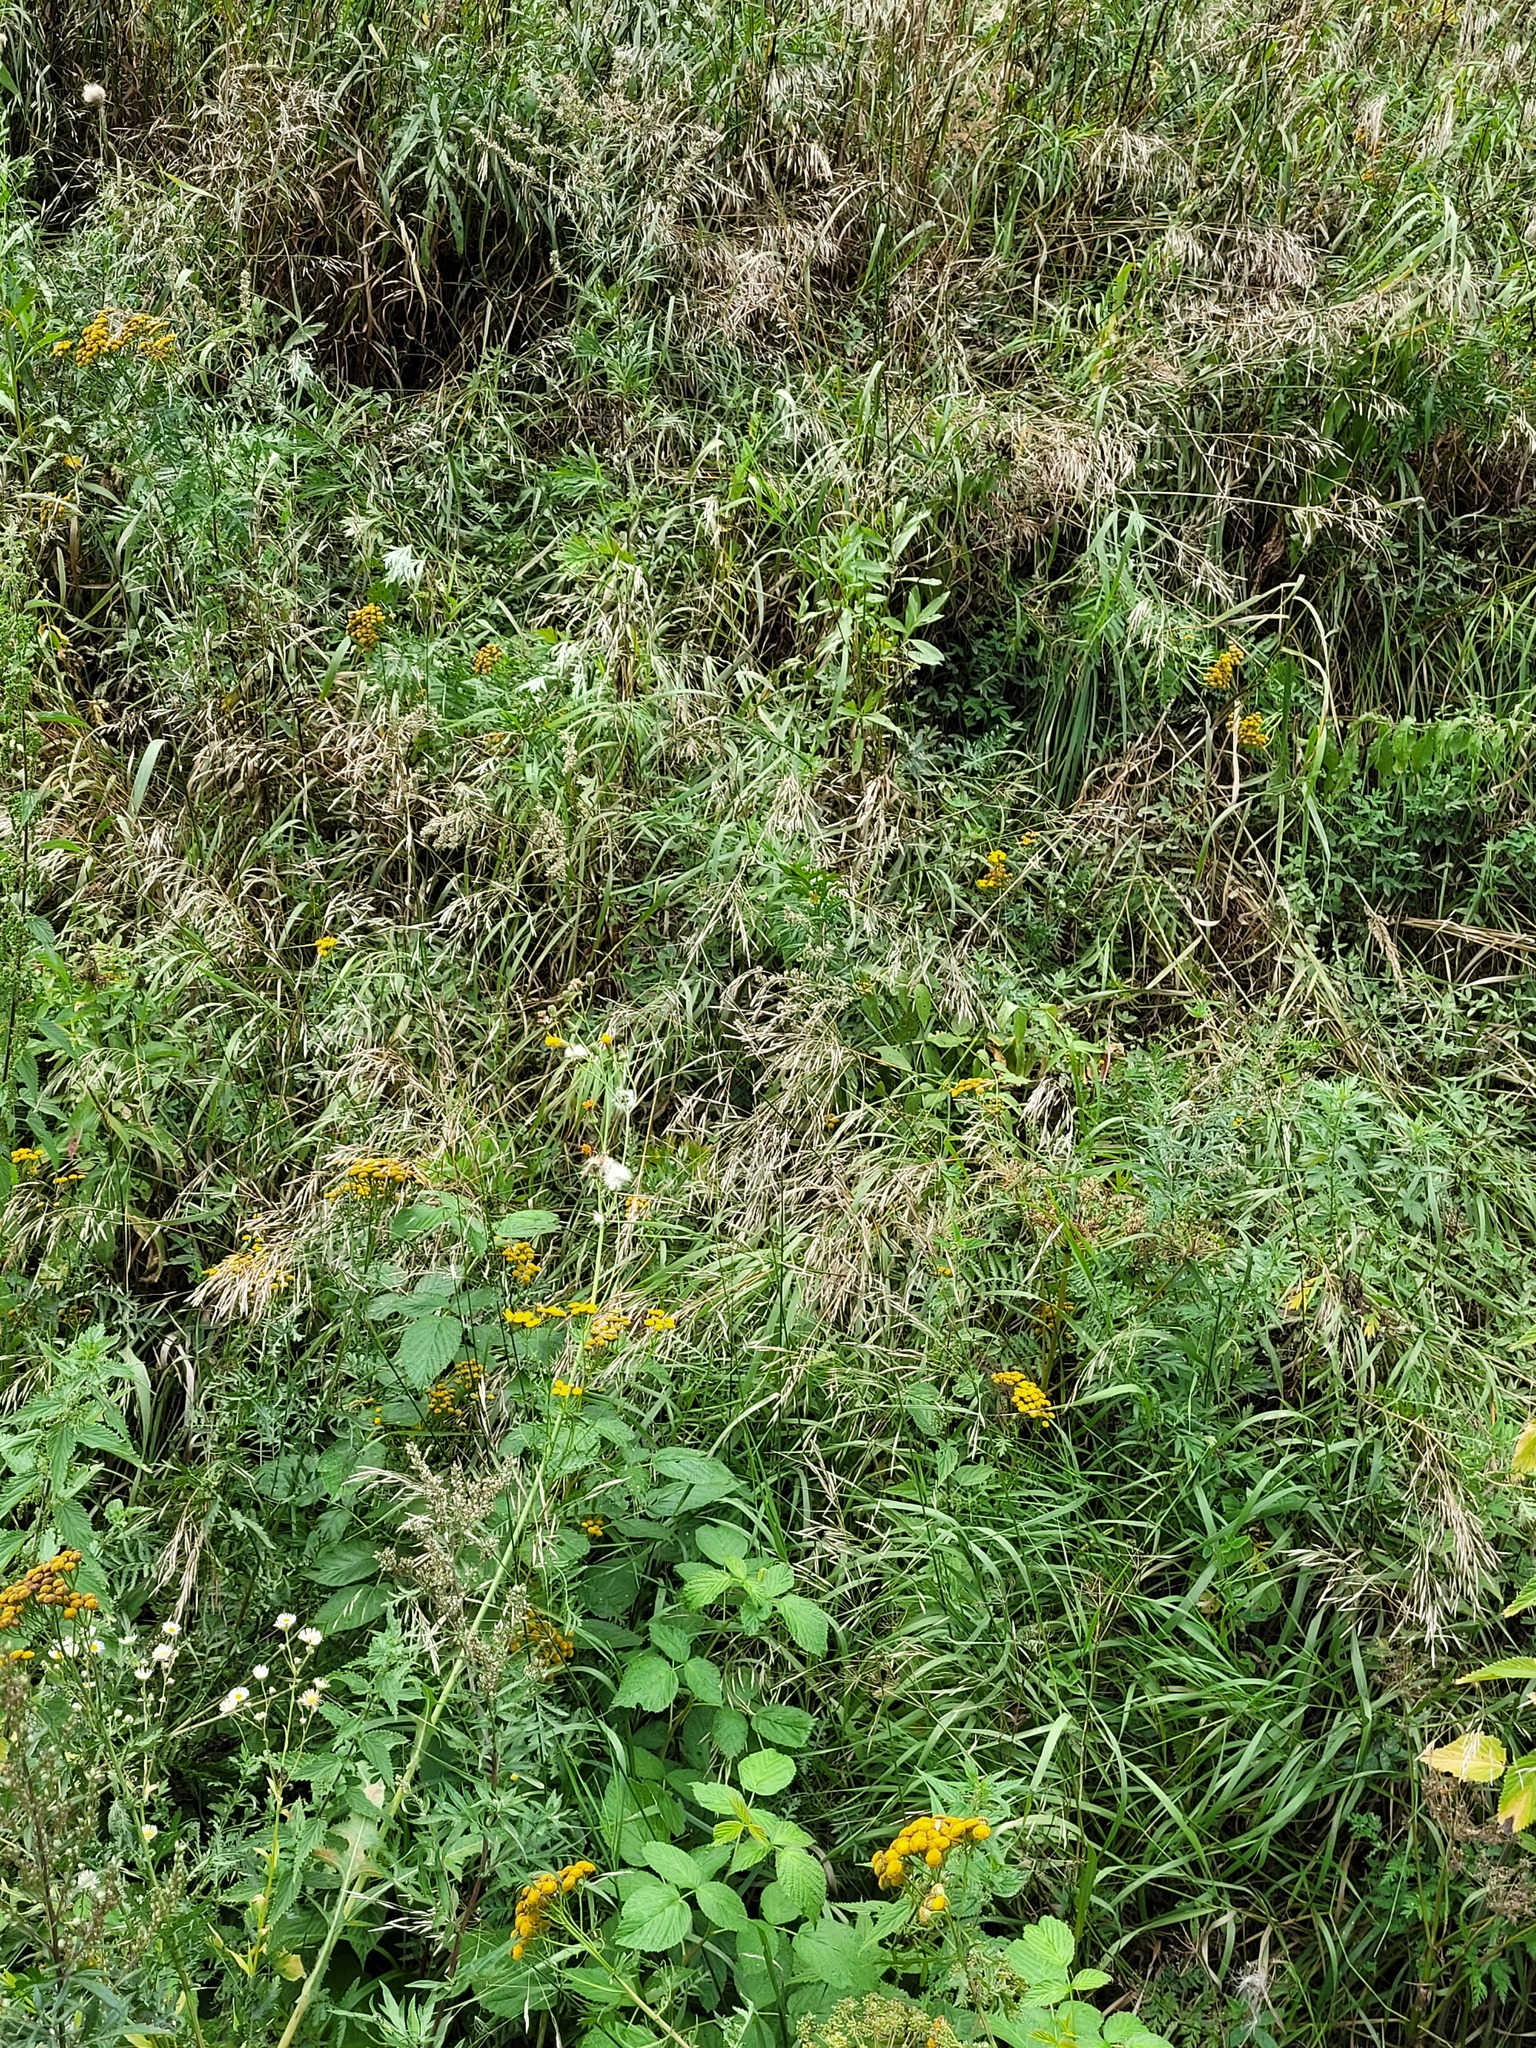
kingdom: Plantae
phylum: Tracheophyta
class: Liliopsida
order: Poales
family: Poaceae
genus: Bromus
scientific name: Bromus inermis
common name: Smooth brome
